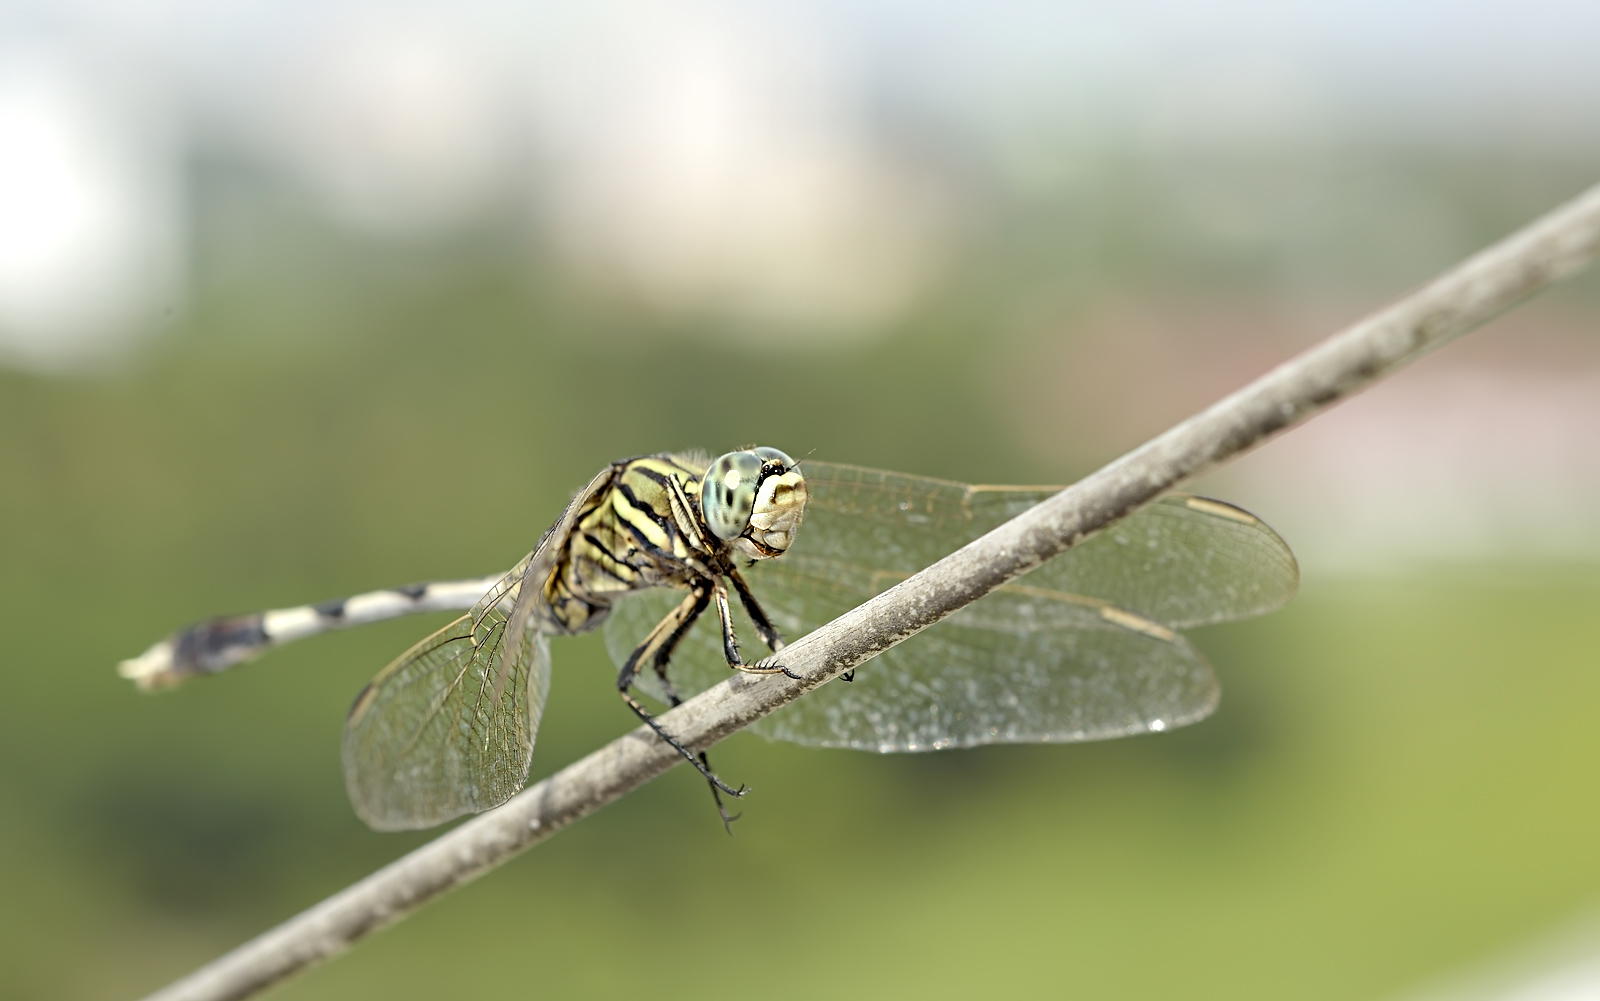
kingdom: Animalia
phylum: Arthropoda
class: Insecta
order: Odonata
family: Libellulidae
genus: Orthetrum
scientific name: Orthetrum sabina
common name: Slender skimmer
